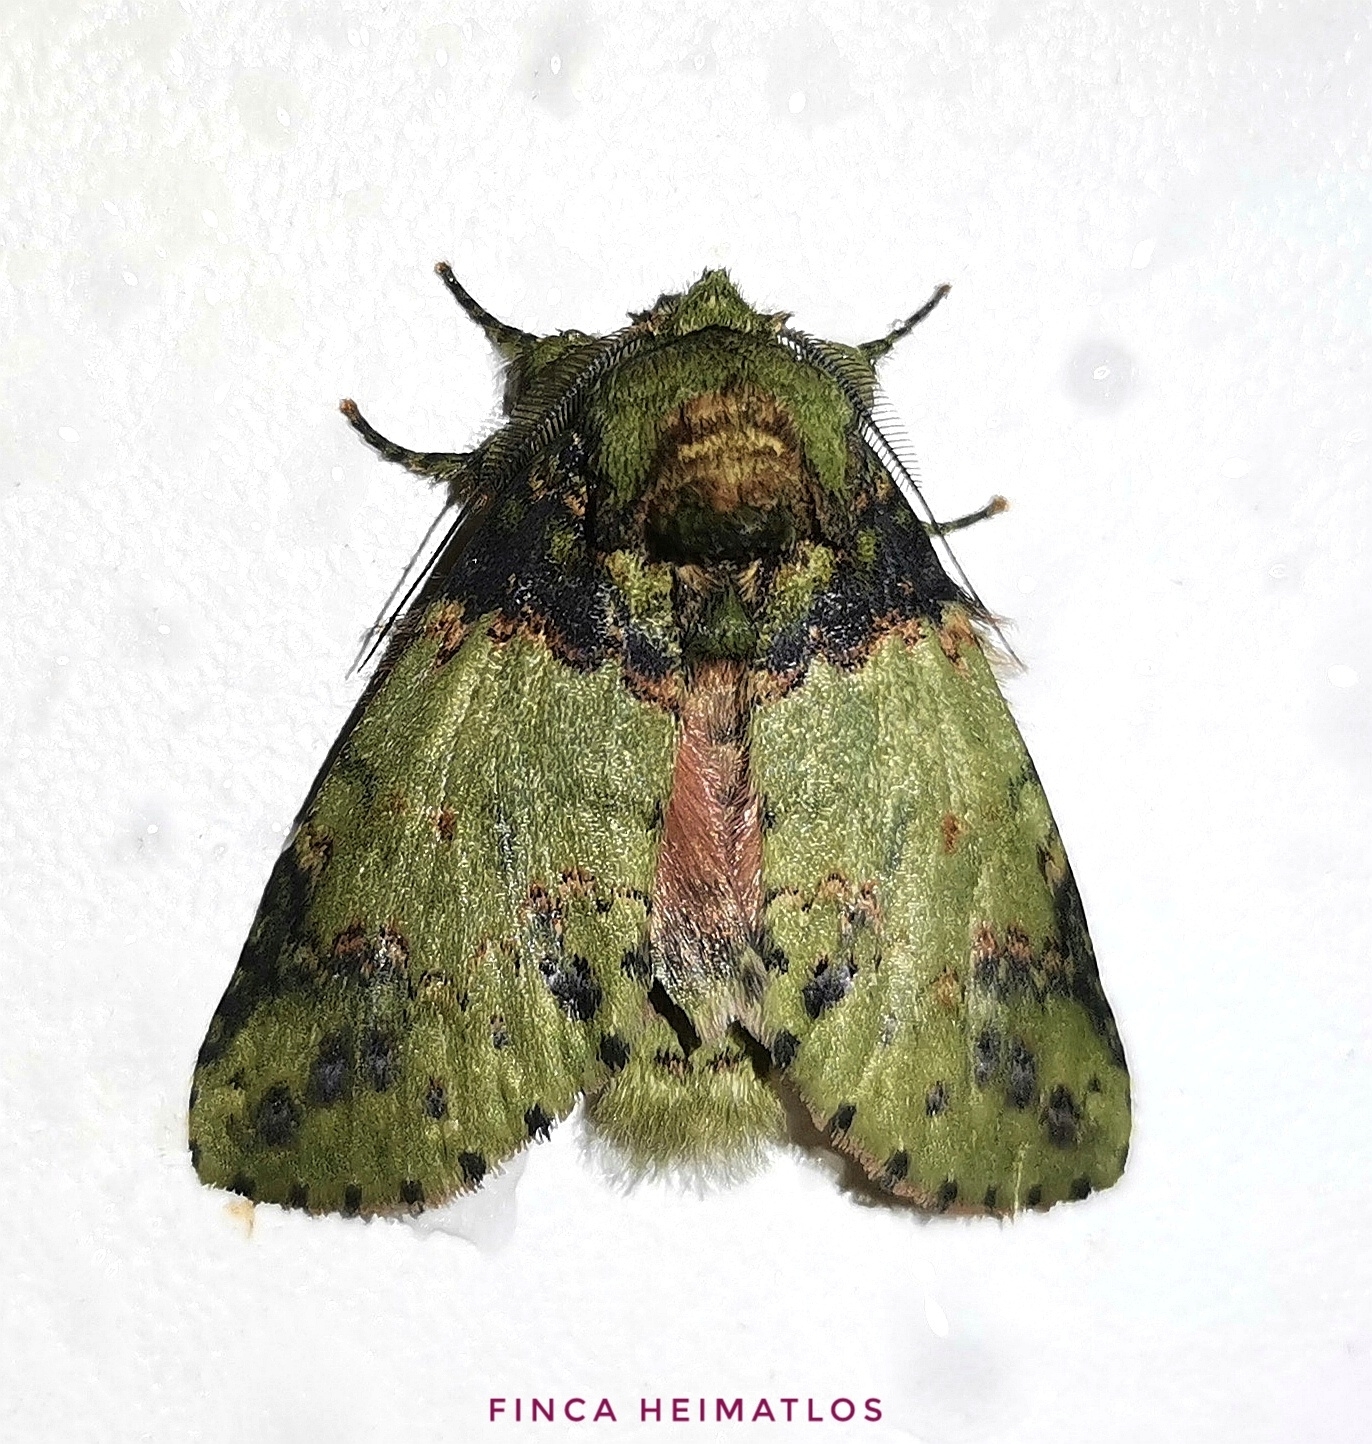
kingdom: Animalia
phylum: Arthropoda
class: Insecta
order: Lepidoptera
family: Notodontidae
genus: Disphragis
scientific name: Disphragis meretricia
